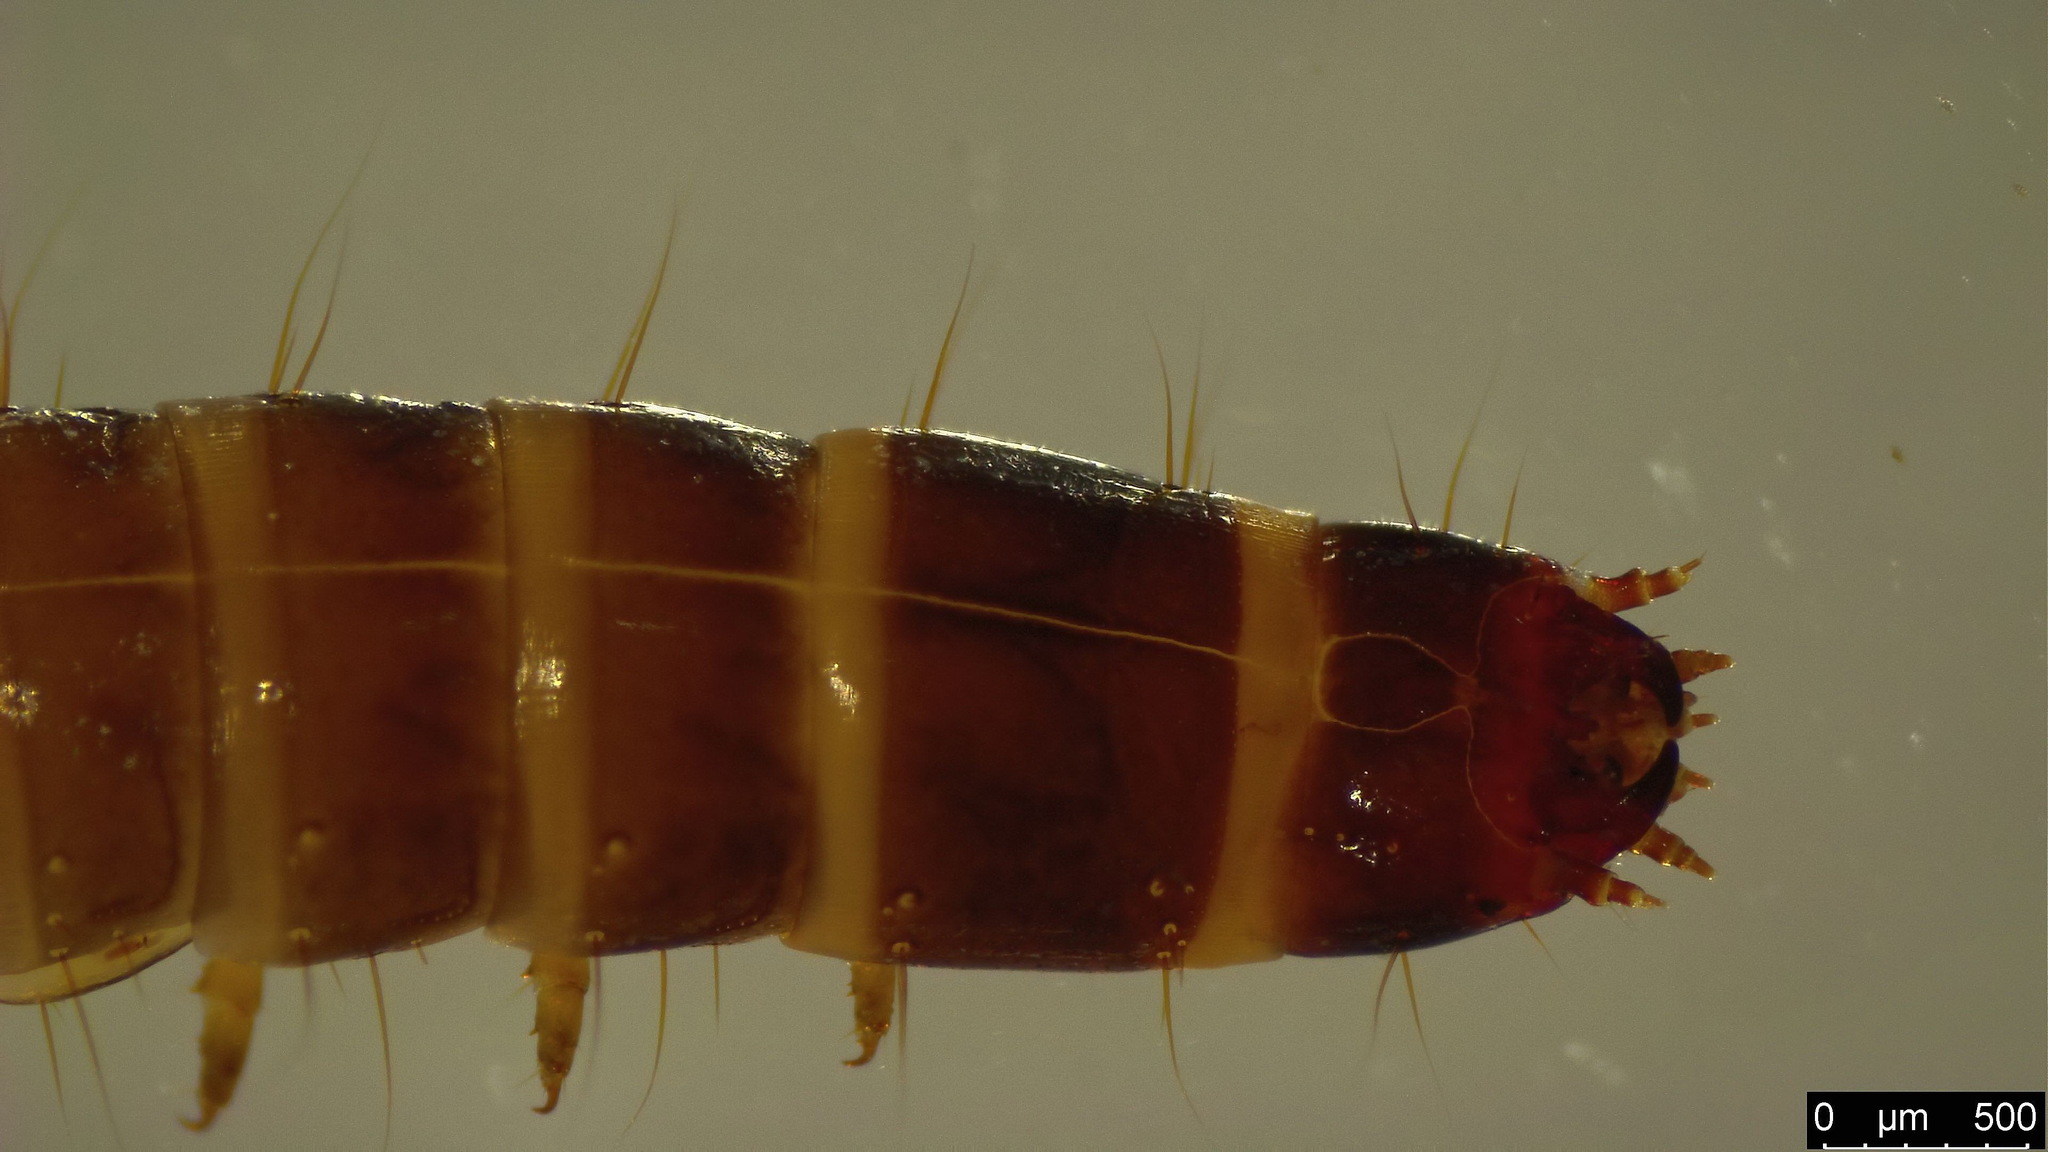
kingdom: Animalia
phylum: Arthropoda
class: Insecta
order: Coleoptera
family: Elateridae
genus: Denticollis
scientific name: Denticollis linearis
